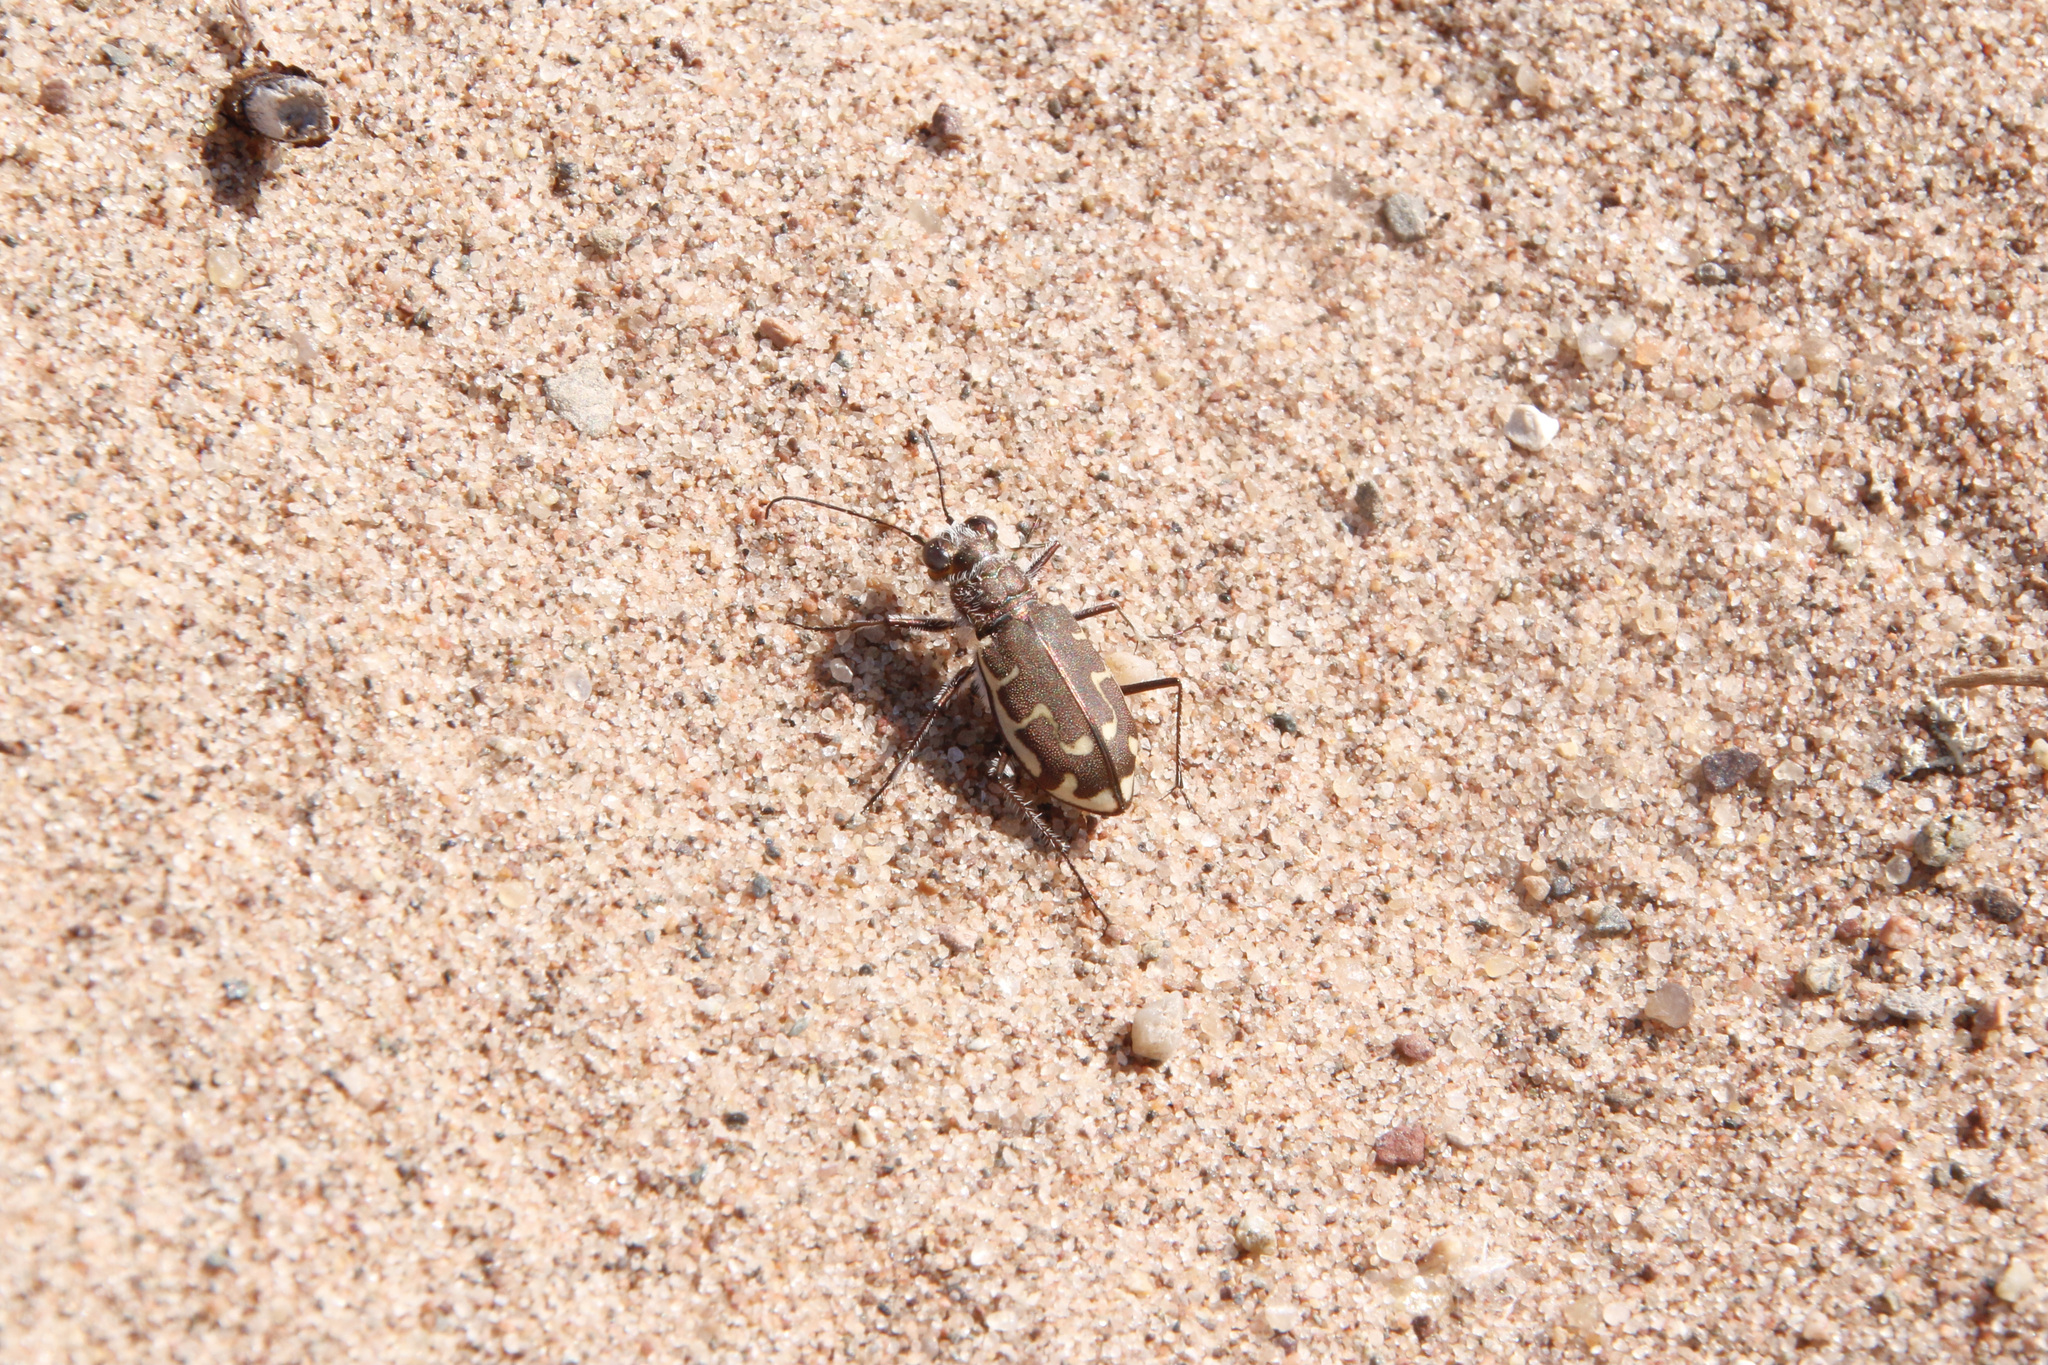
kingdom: Animalia
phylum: Arthropoda
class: Insecta
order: Coleoptera
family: Carabidae
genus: Cicindela
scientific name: Cicindela hirticollis
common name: Hairy-necked tiger beetle
